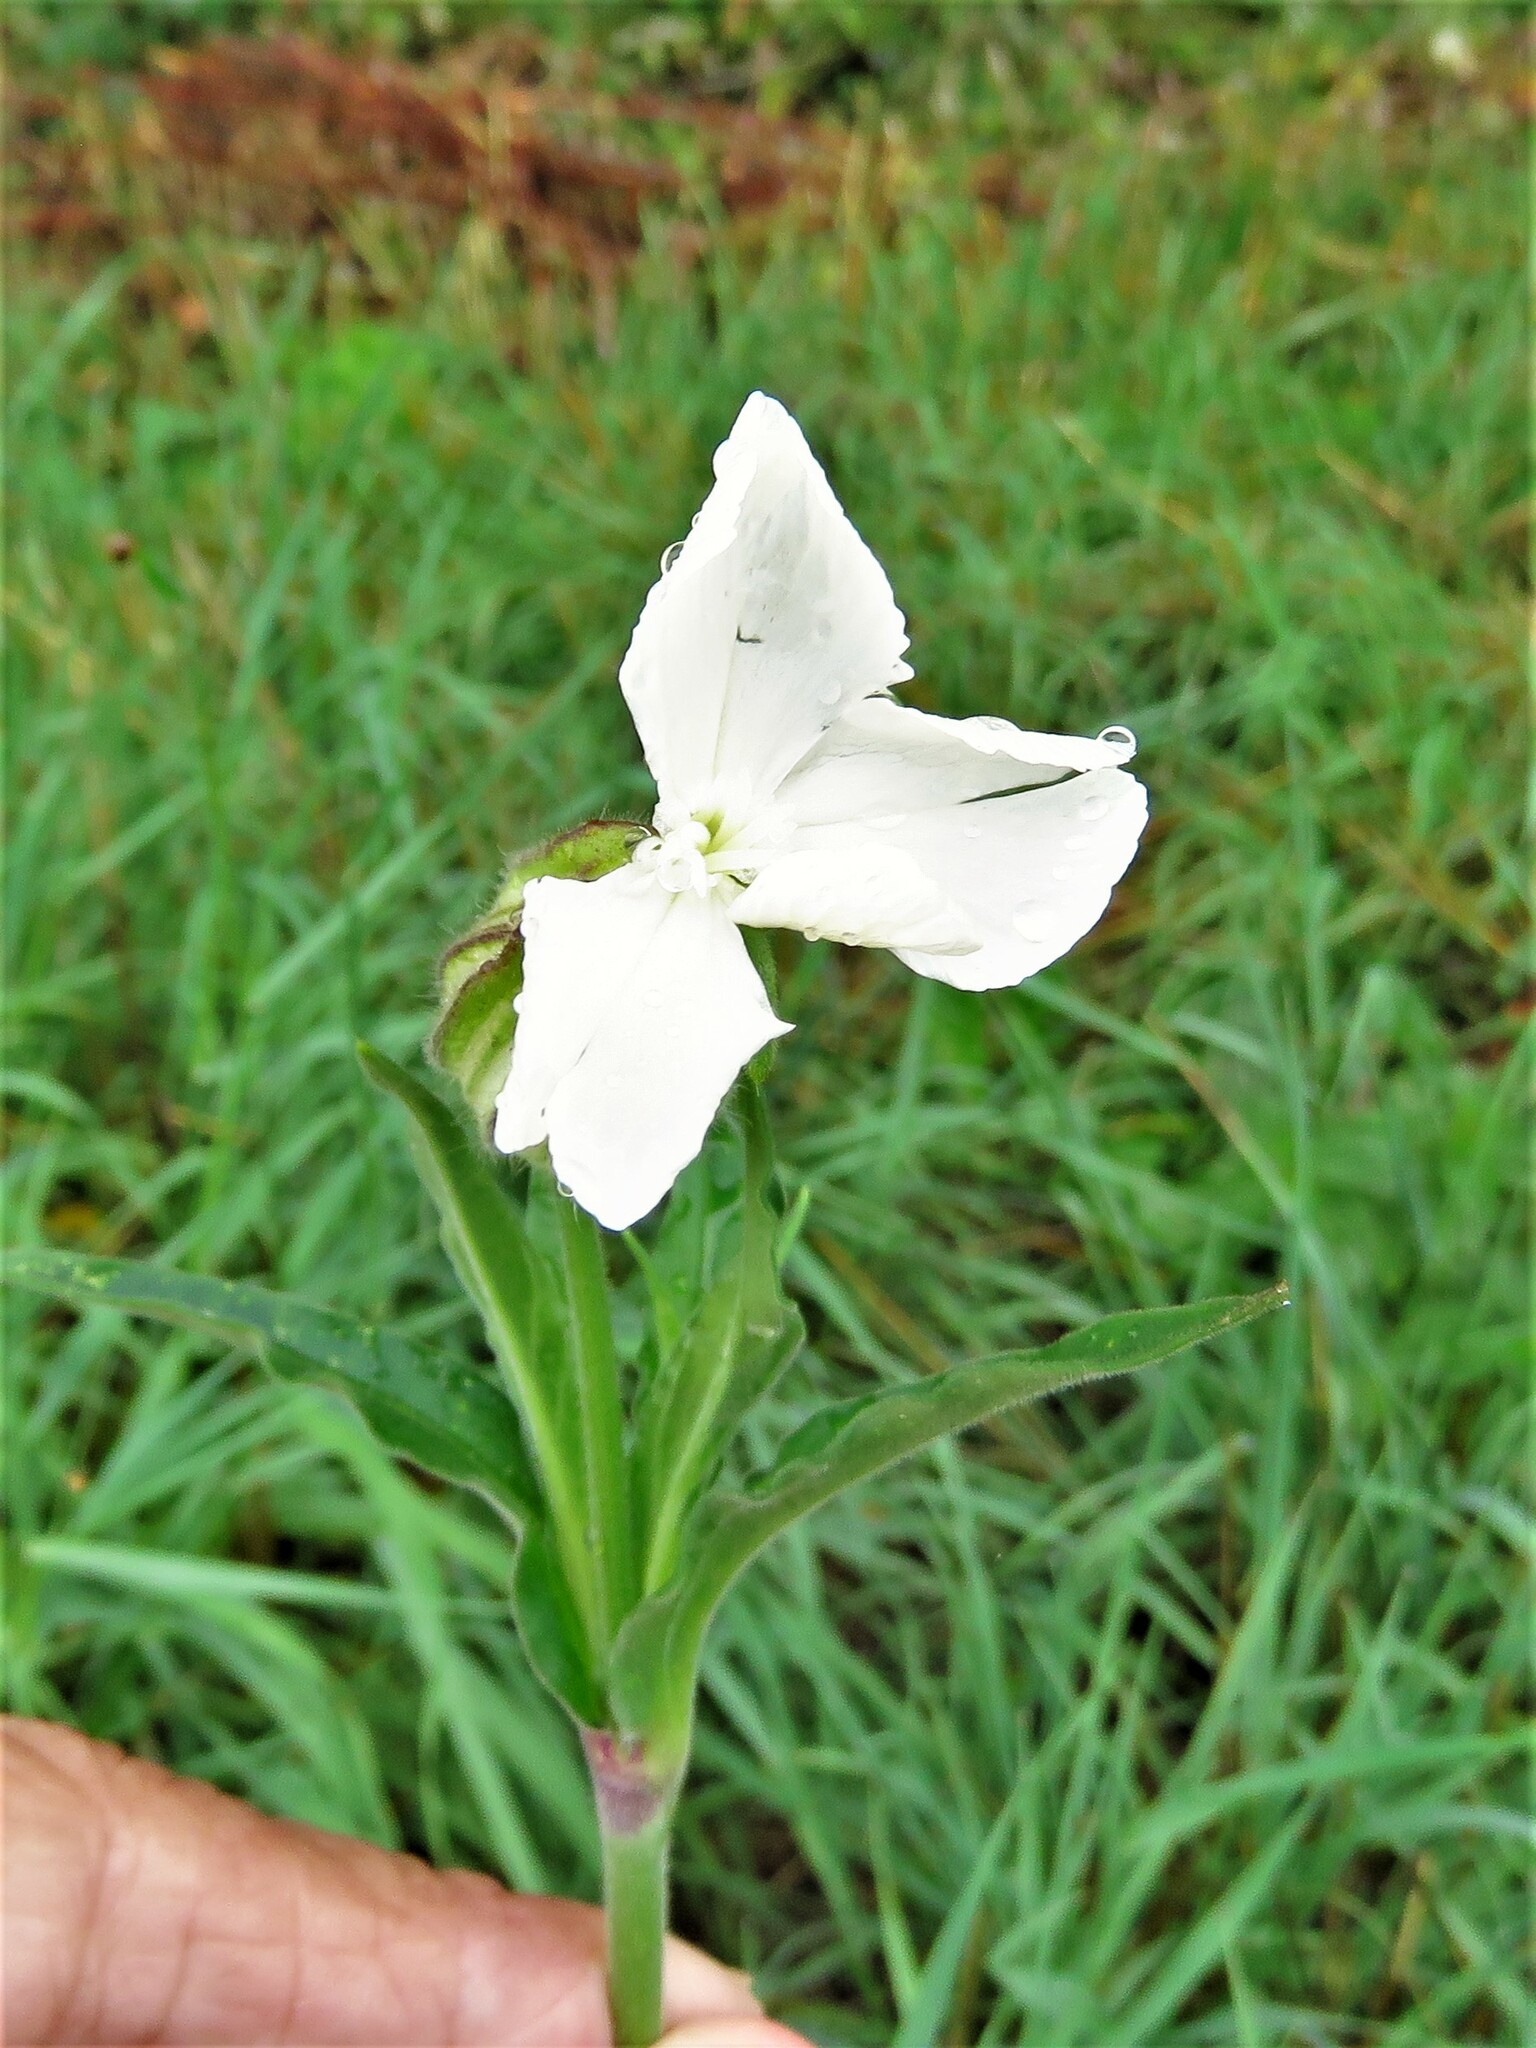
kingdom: Plantae
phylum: Tracheophyta
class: Magnoliopsida
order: Caryophyllales
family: Caryophyllaceae
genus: Silene
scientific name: Silene latifolia
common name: White campion
